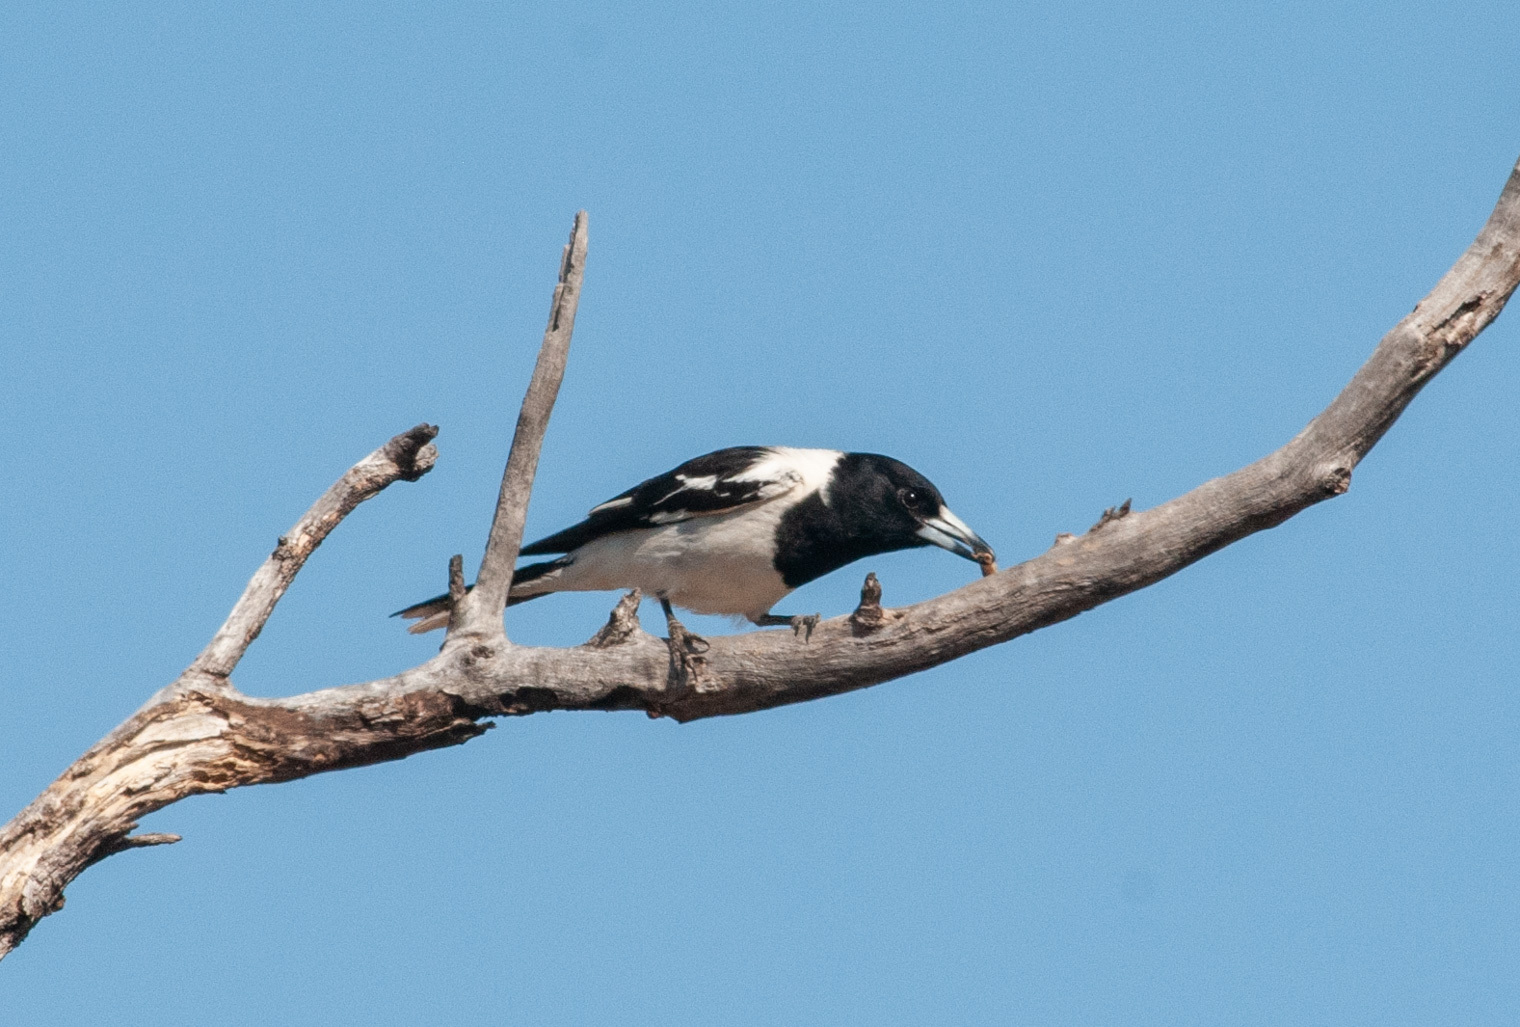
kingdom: Animalia
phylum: Chordata
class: Aves
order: Passeriformes
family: Cracticidae
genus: Cracticus
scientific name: Cracticus nigrogularis
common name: Pied butcherbird
